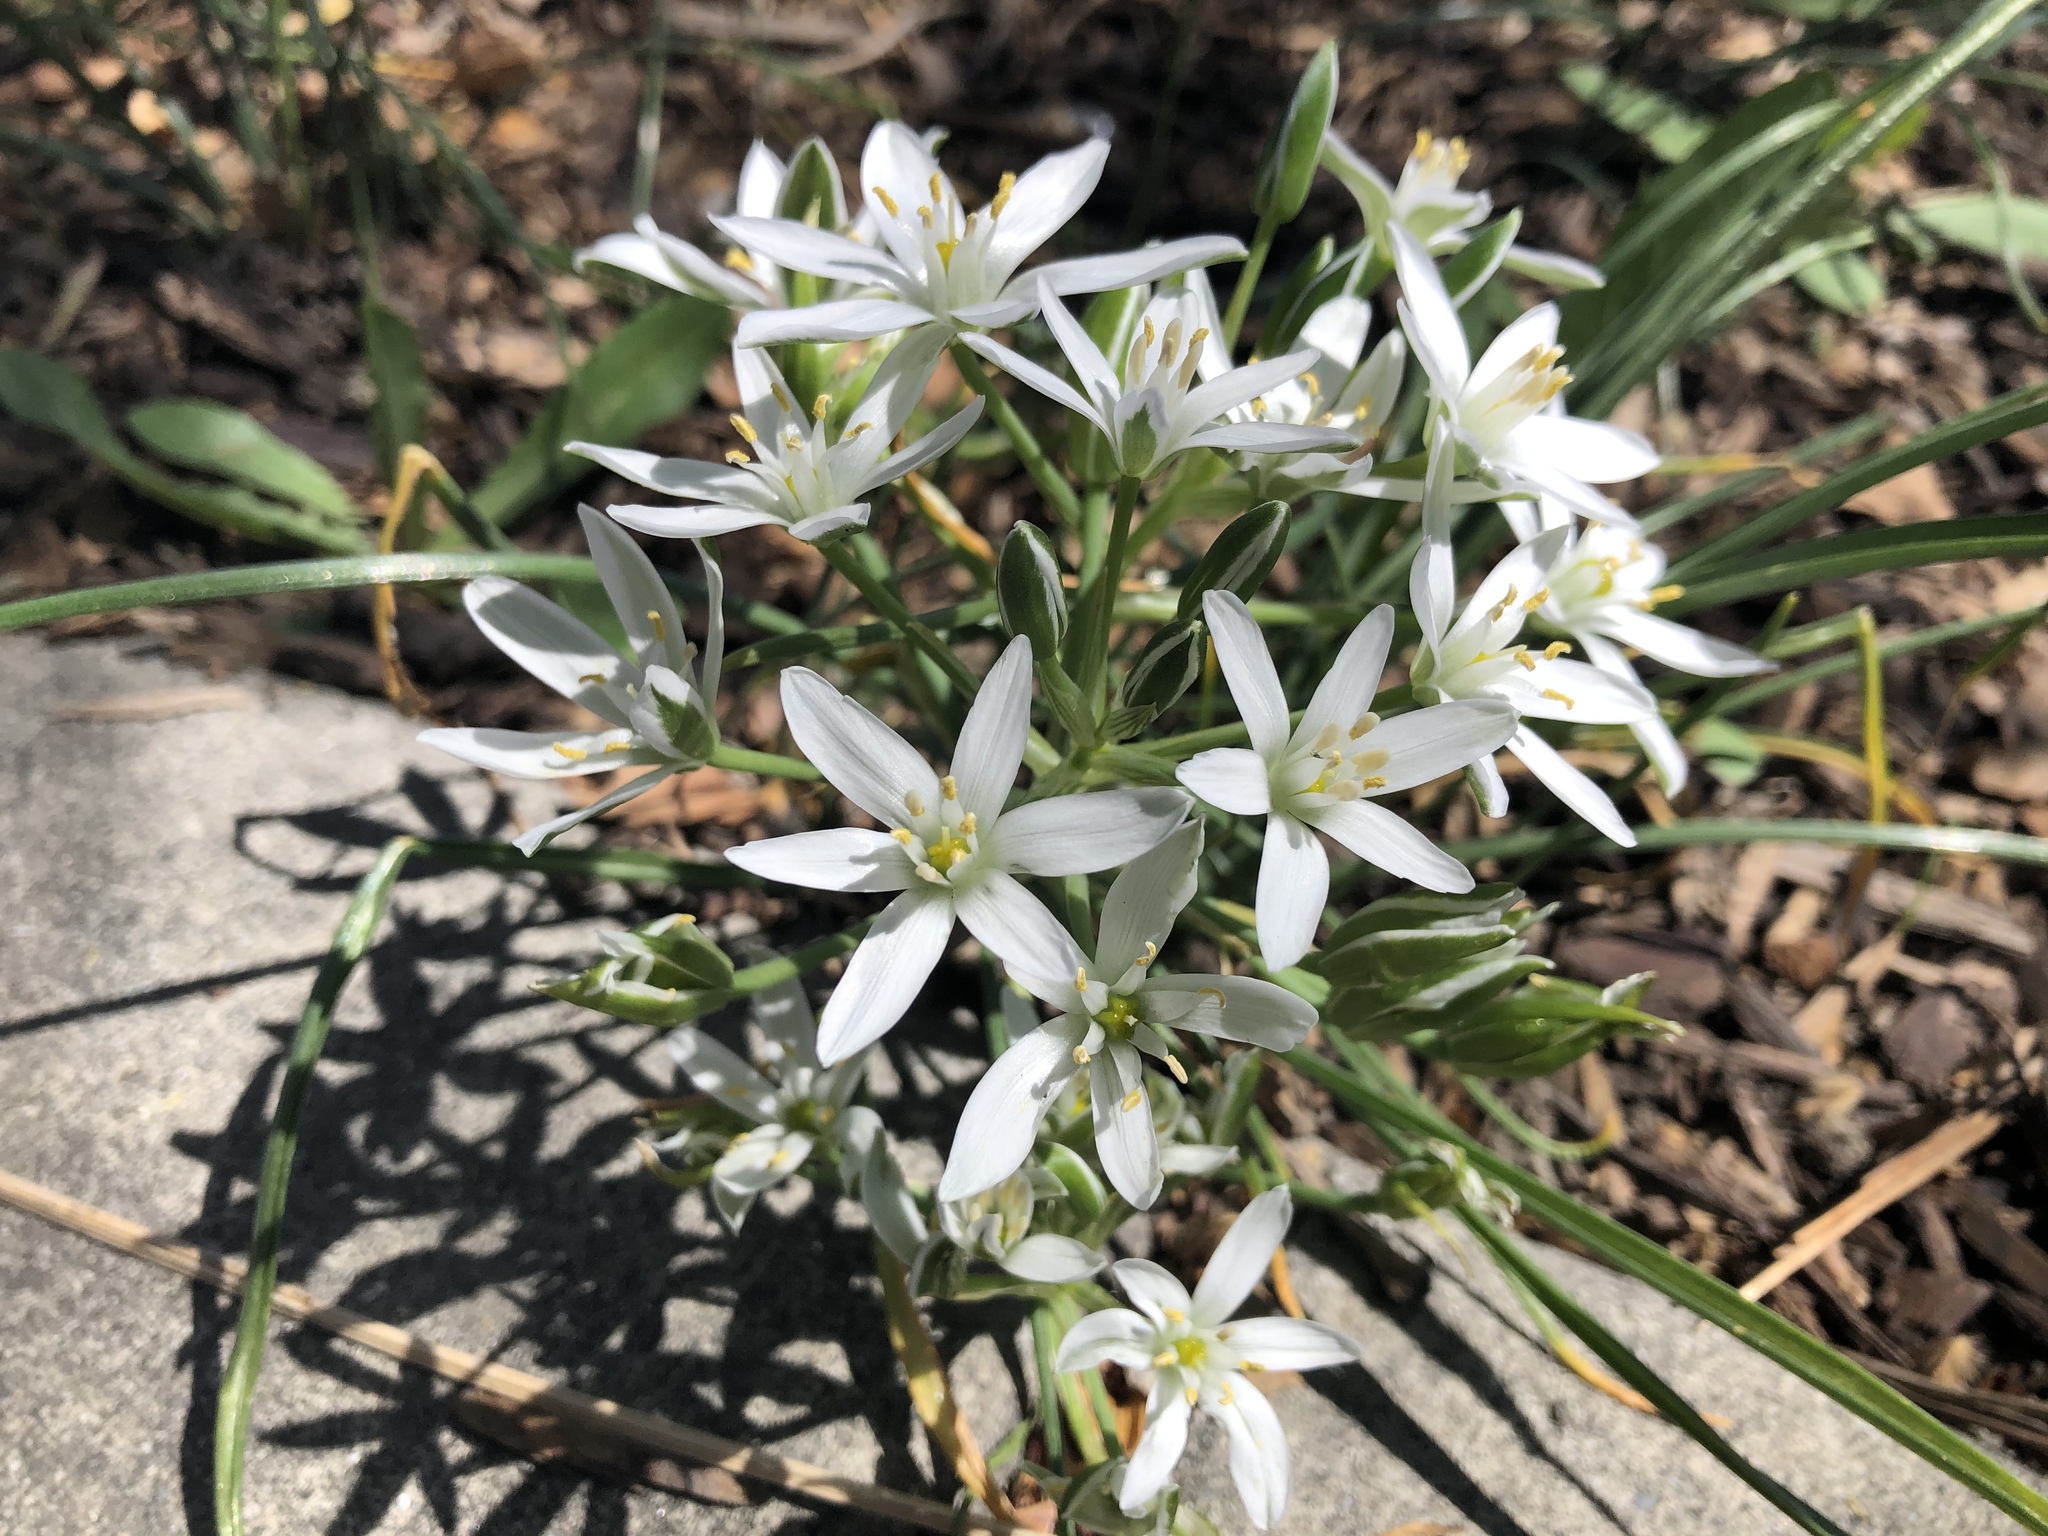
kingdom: Plantae
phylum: Tracheophyta
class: Liliopsida
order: Asparagales
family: Asparagaceae
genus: Ornithogalum
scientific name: Ornithogalum umbellatum
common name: Garden star-of-bethlehem
